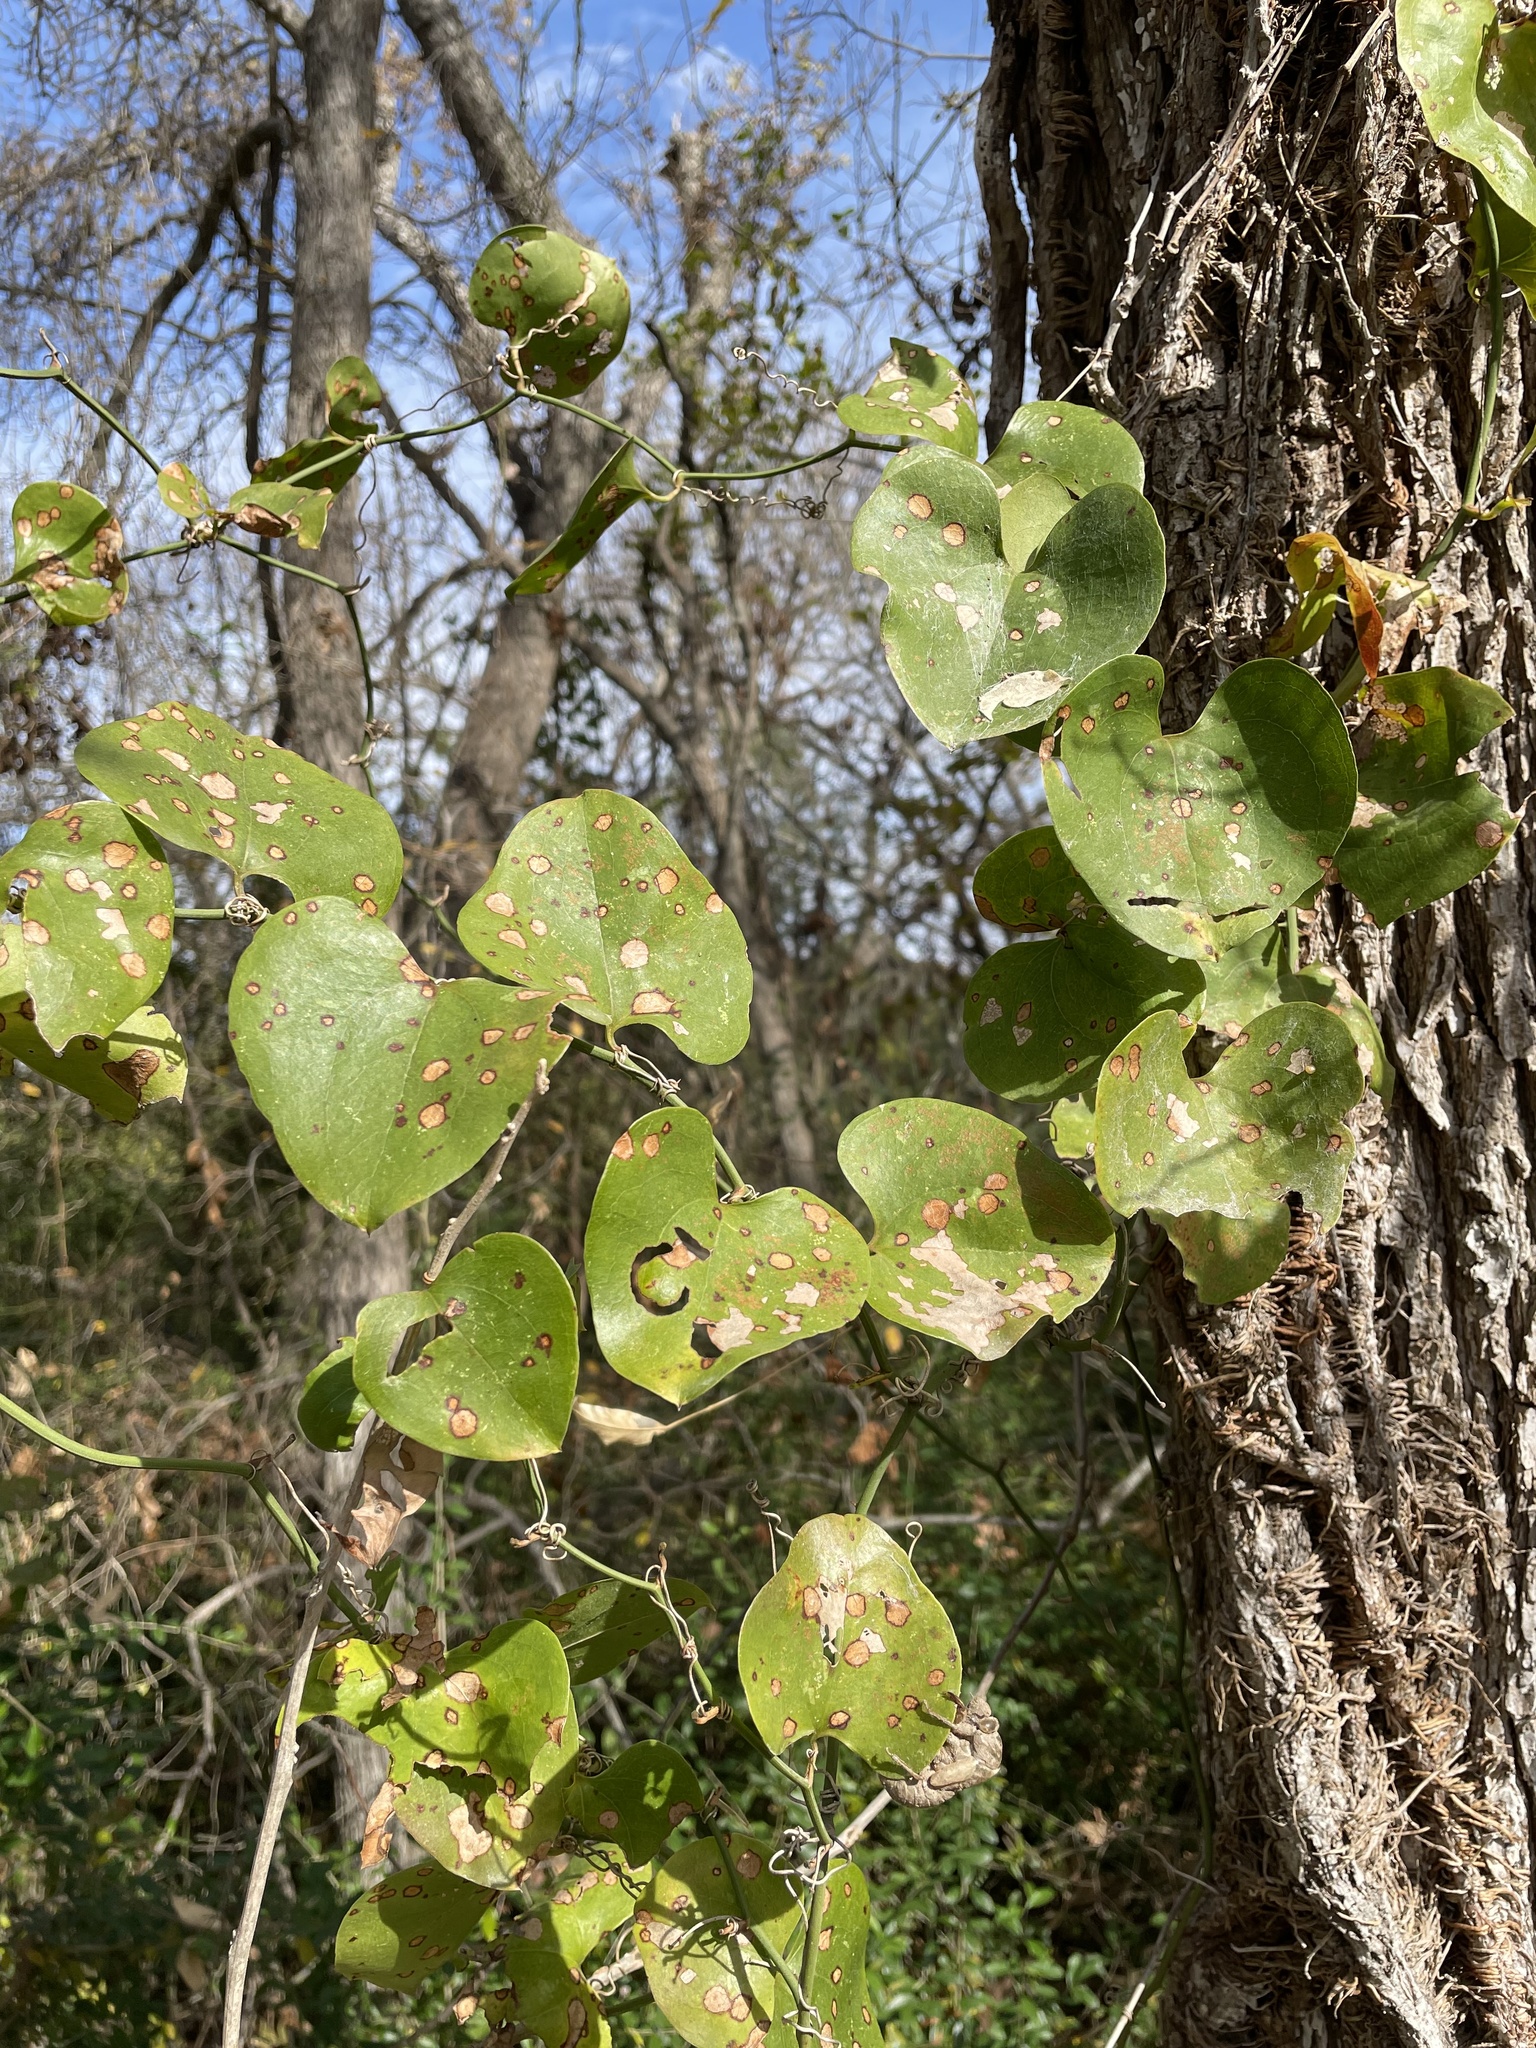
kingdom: Plantae
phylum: Tracheophyta
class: Liliopsida
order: Liliales
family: Smilacaceae
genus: Smilax
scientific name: Smilax bona-nox
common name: Catbrier
